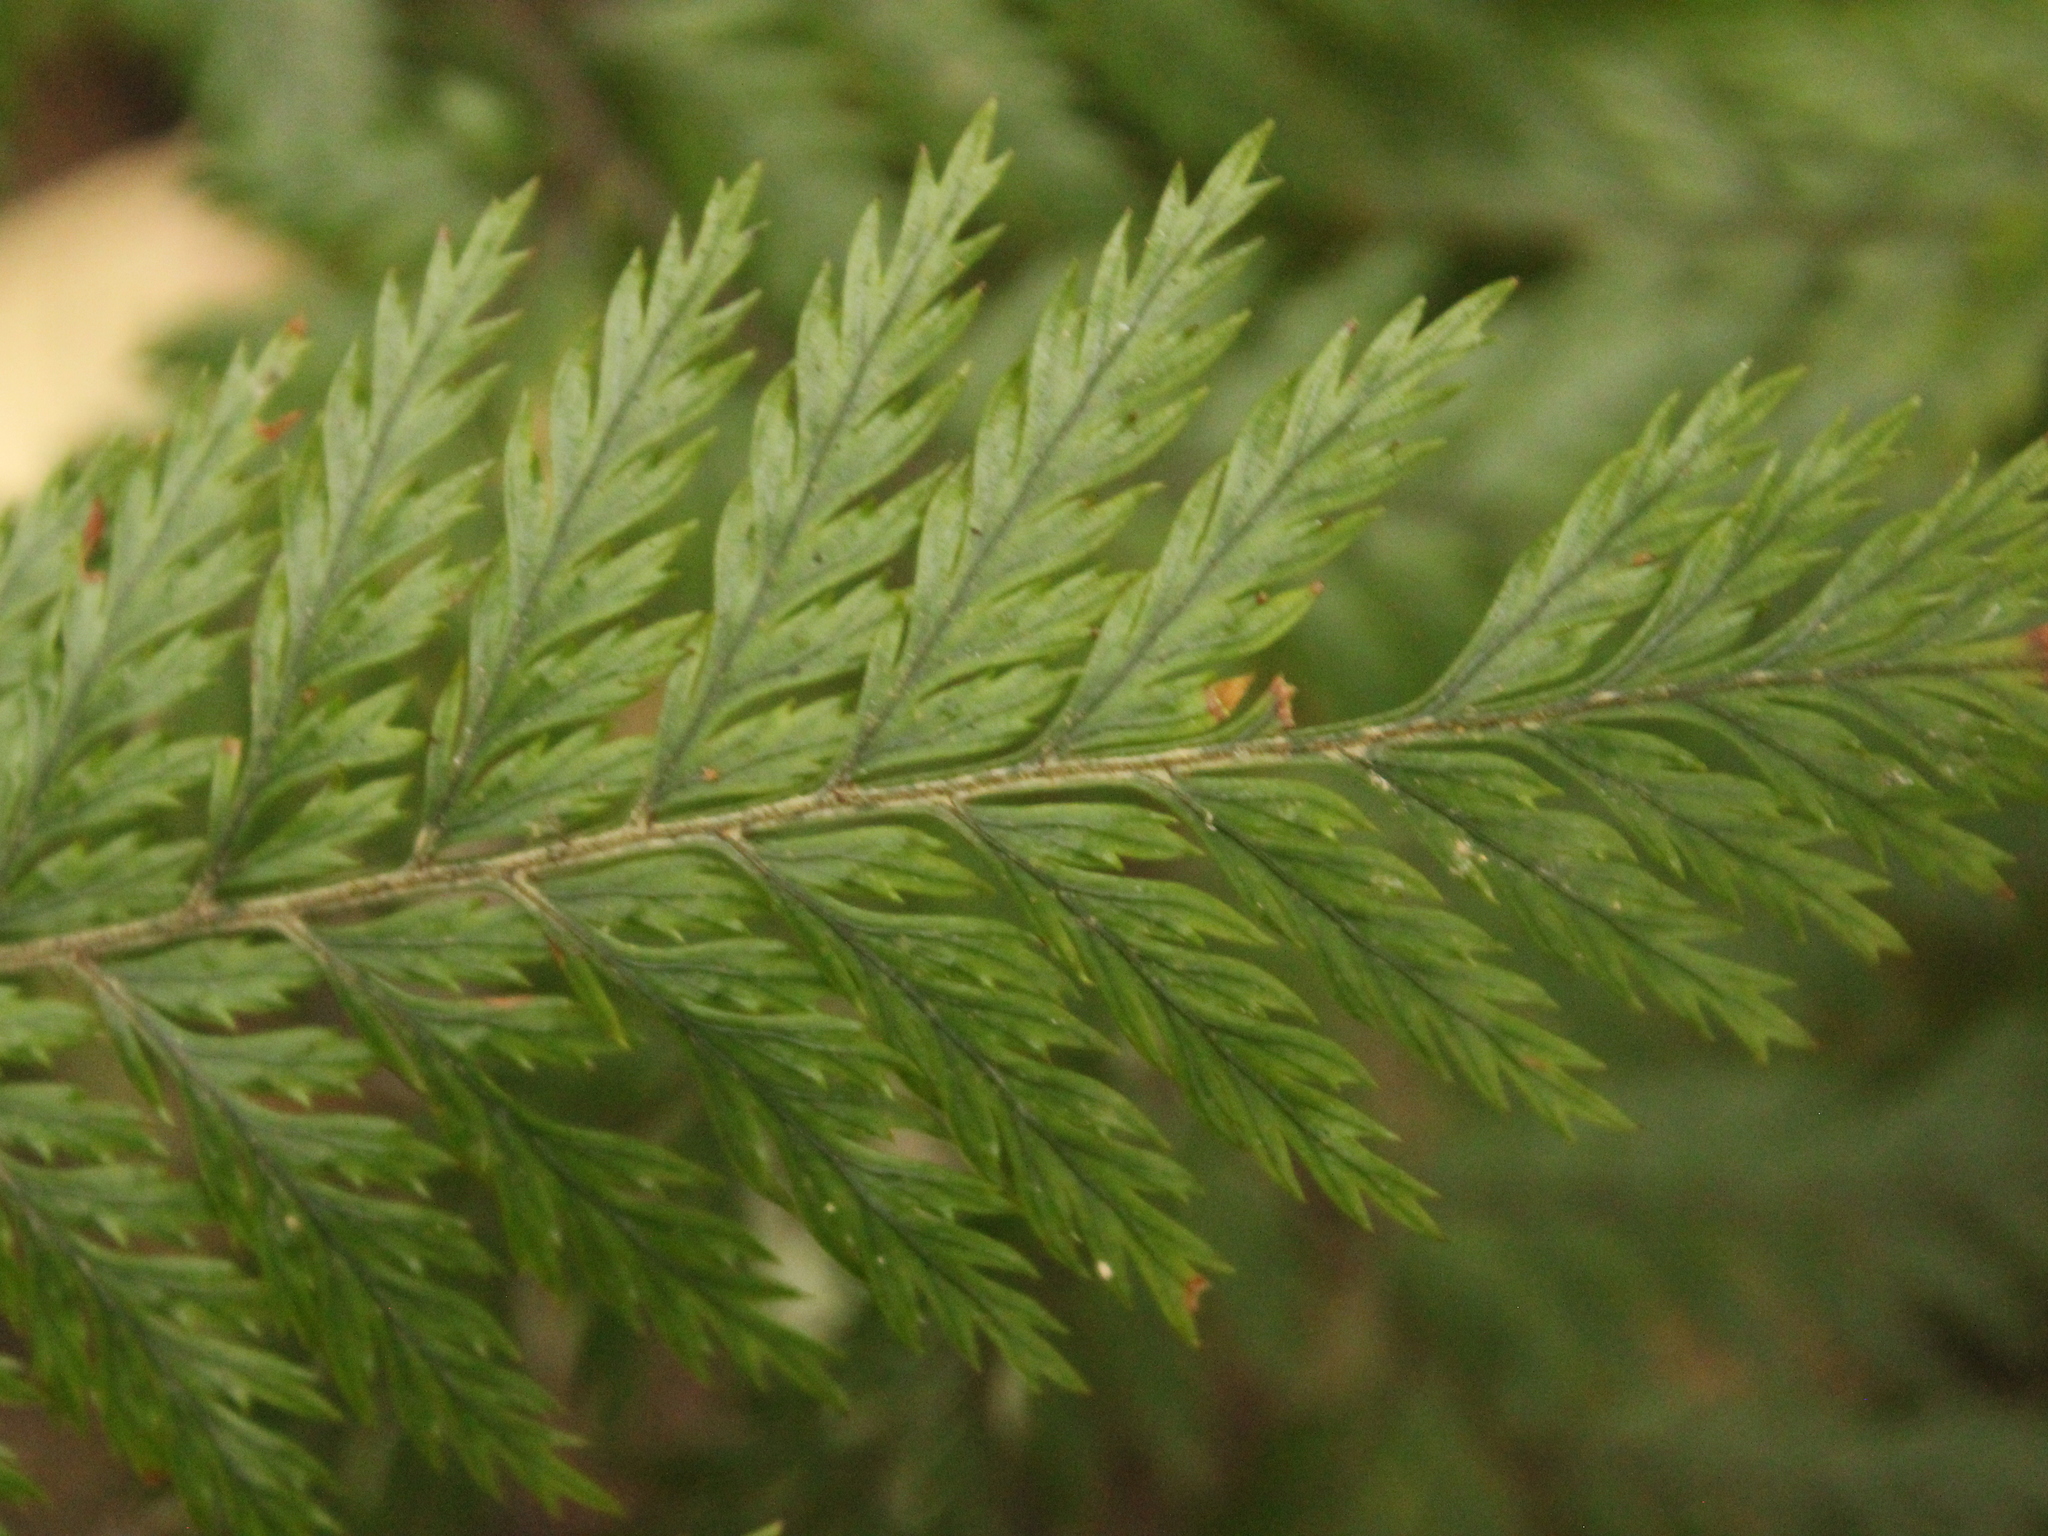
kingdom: Plantae
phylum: Tracheophyta
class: Polypodiopsida
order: Polypodiales
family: Dryopteridaceae
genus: Lastreopsis
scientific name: Lastreopsis hispida
